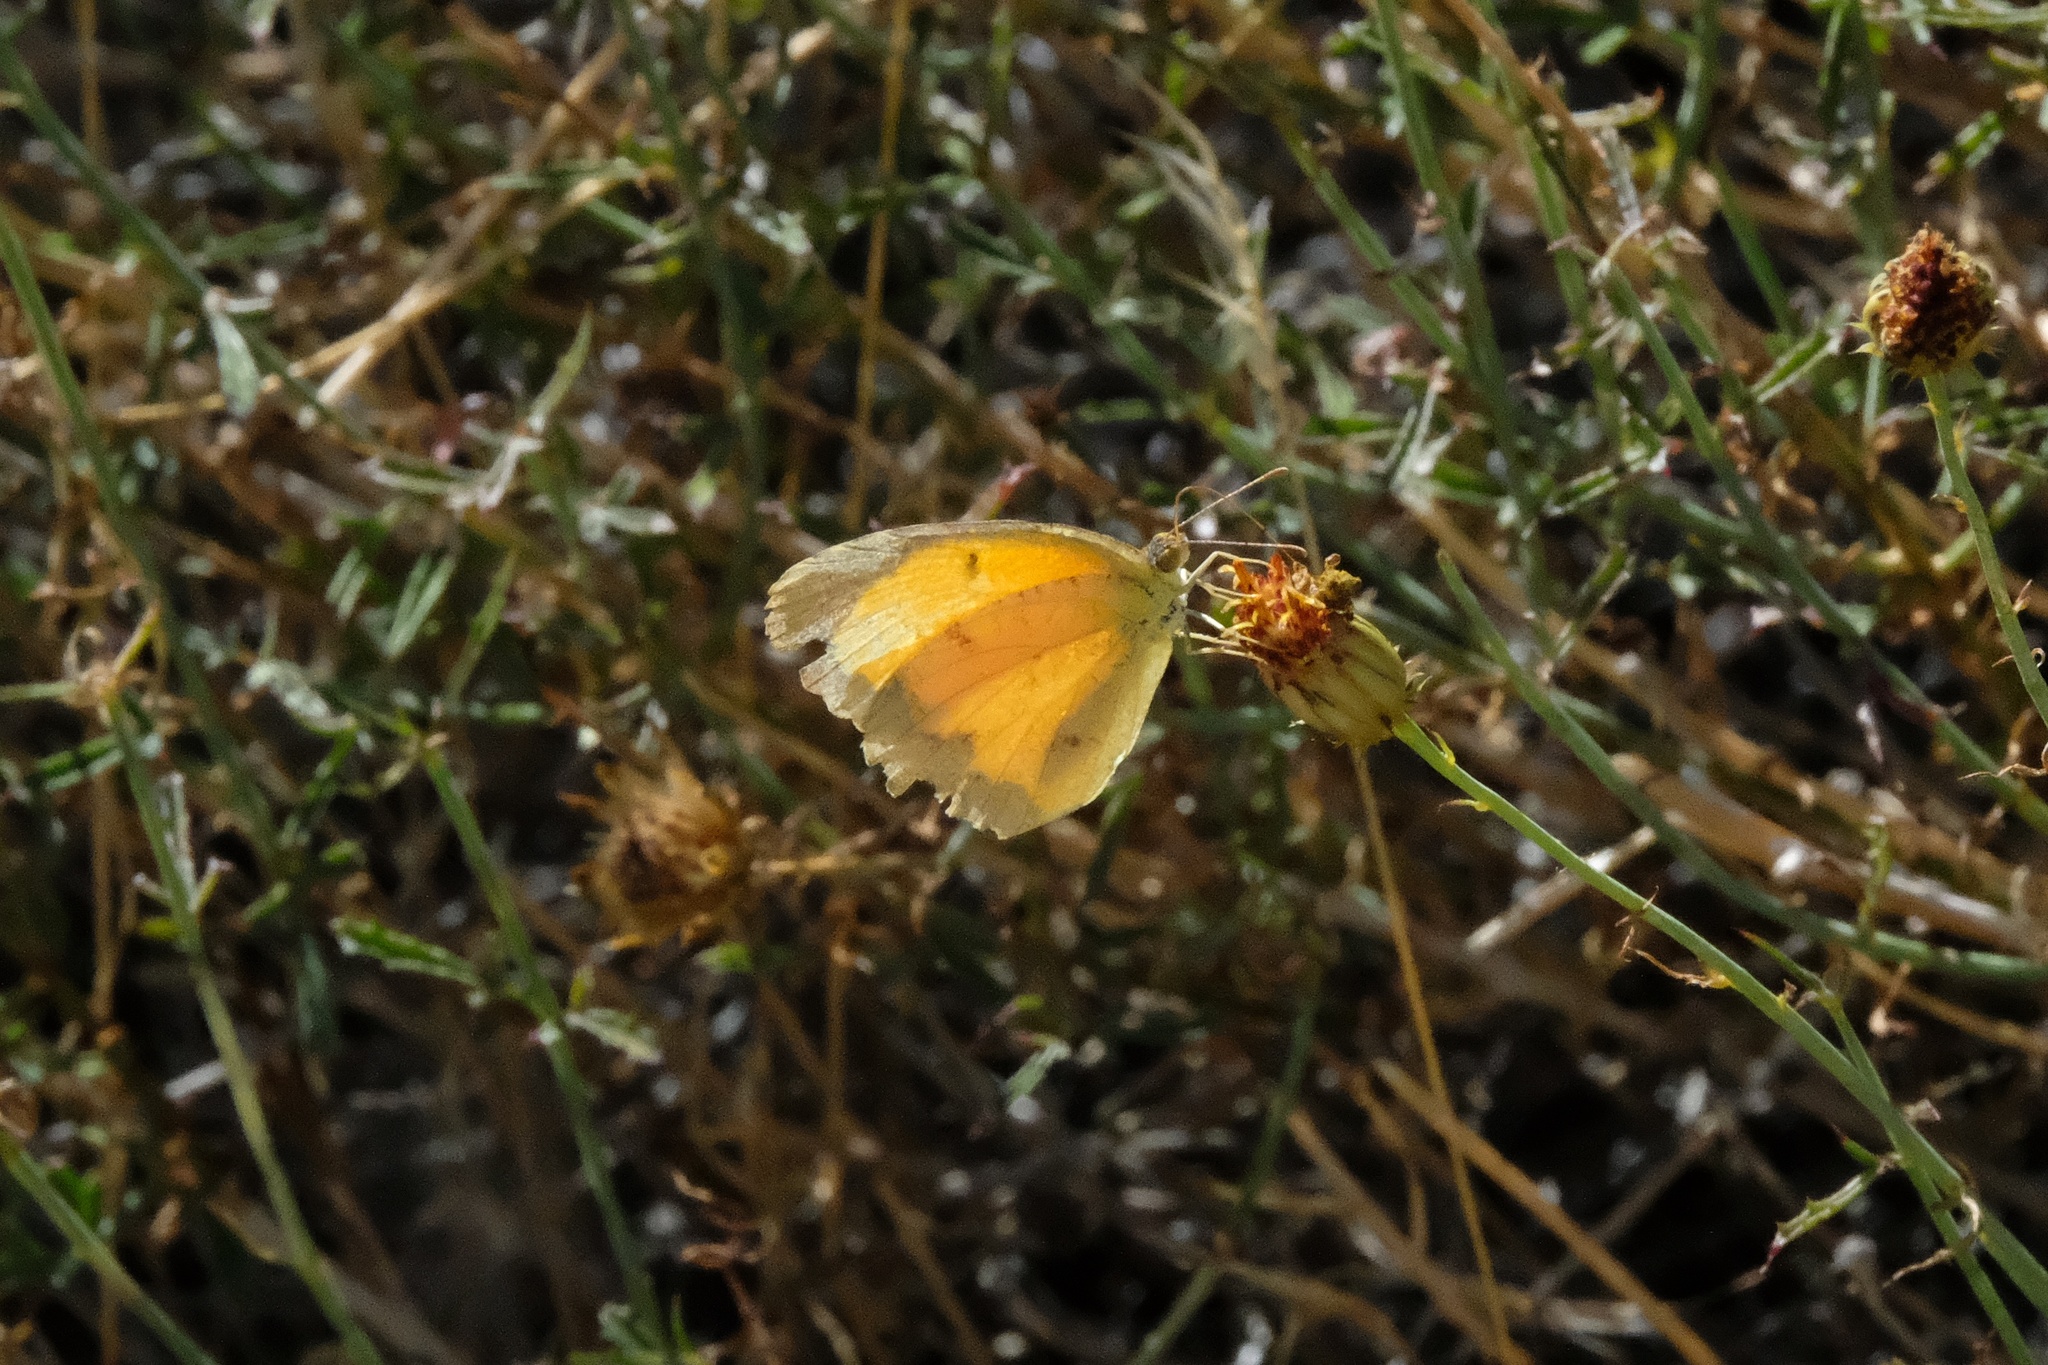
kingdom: Animalia
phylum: Arthropoda
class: Insecta
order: Lepidoptera
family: Pieridae
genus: Abaeis
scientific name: Abaeis nicippe
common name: Sleepy orange
